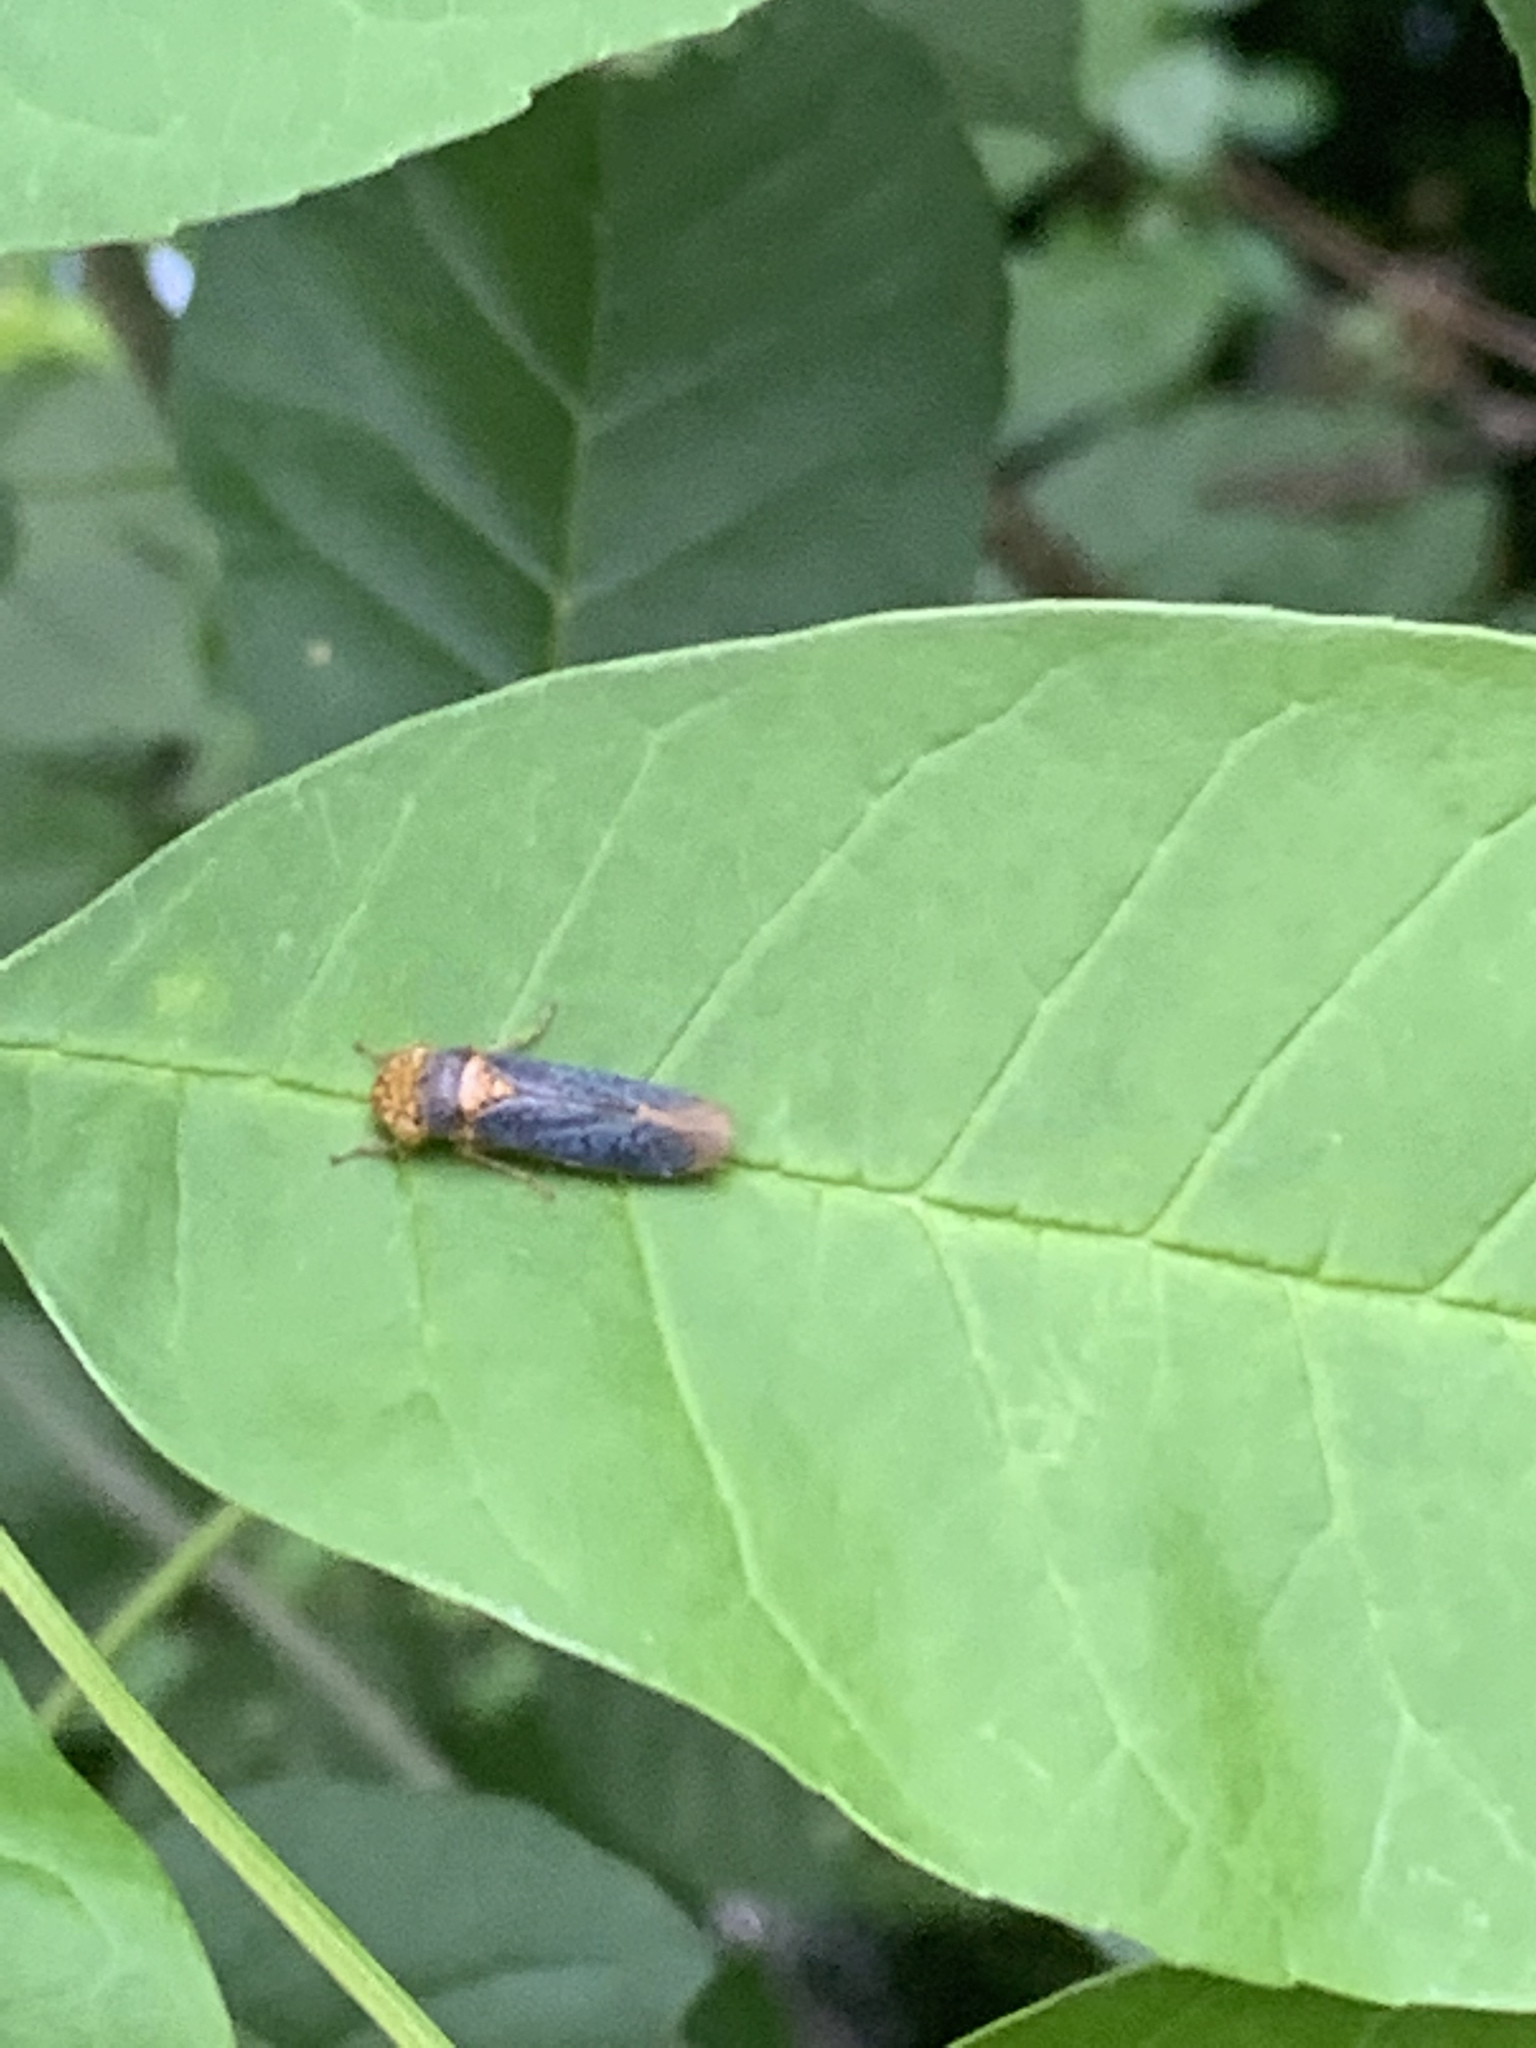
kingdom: Animalia
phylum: Arthropoda
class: Insecta
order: Hemiptera
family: Cicadellidae
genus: Oncometopia
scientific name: Oncometopia orbona
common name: Broad-headed sharpshooter
